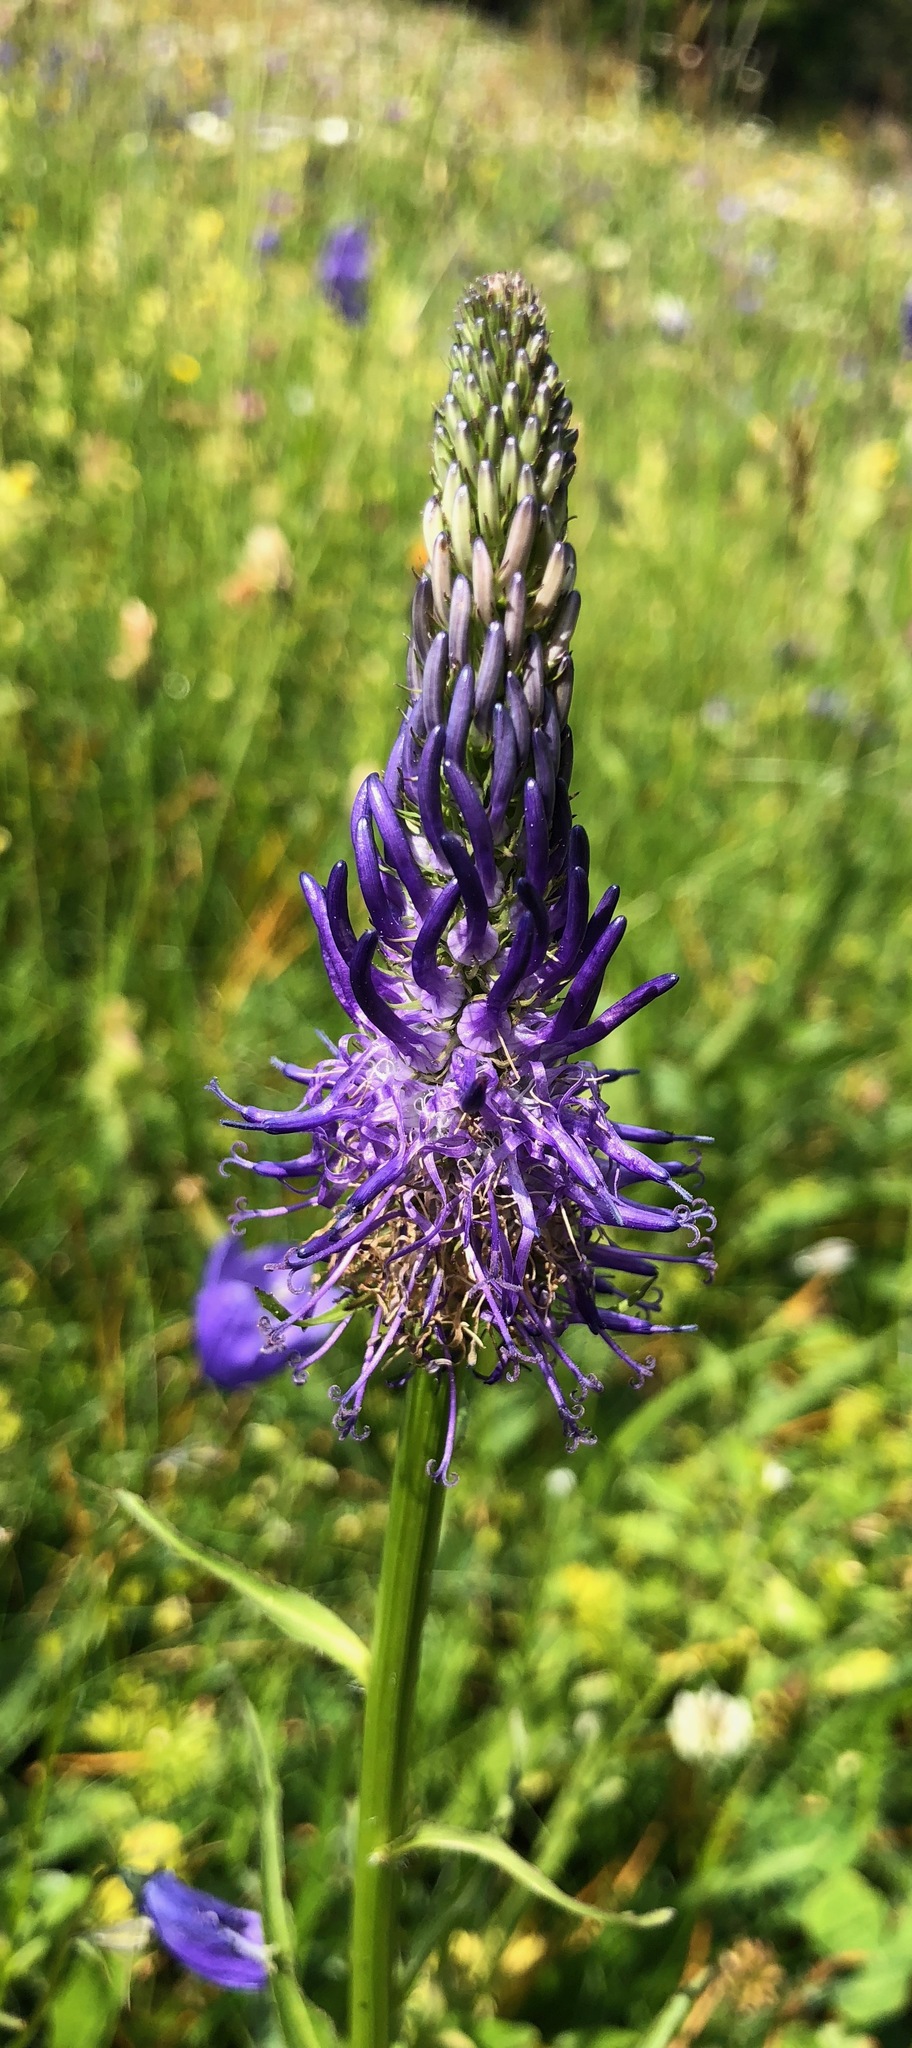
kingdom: Plantae
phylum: Tracheophyta
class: Magnoliopsida
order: Asterales
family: Campanulaceae
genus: Phyteuma
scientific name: Phyteuma betonicifolium
